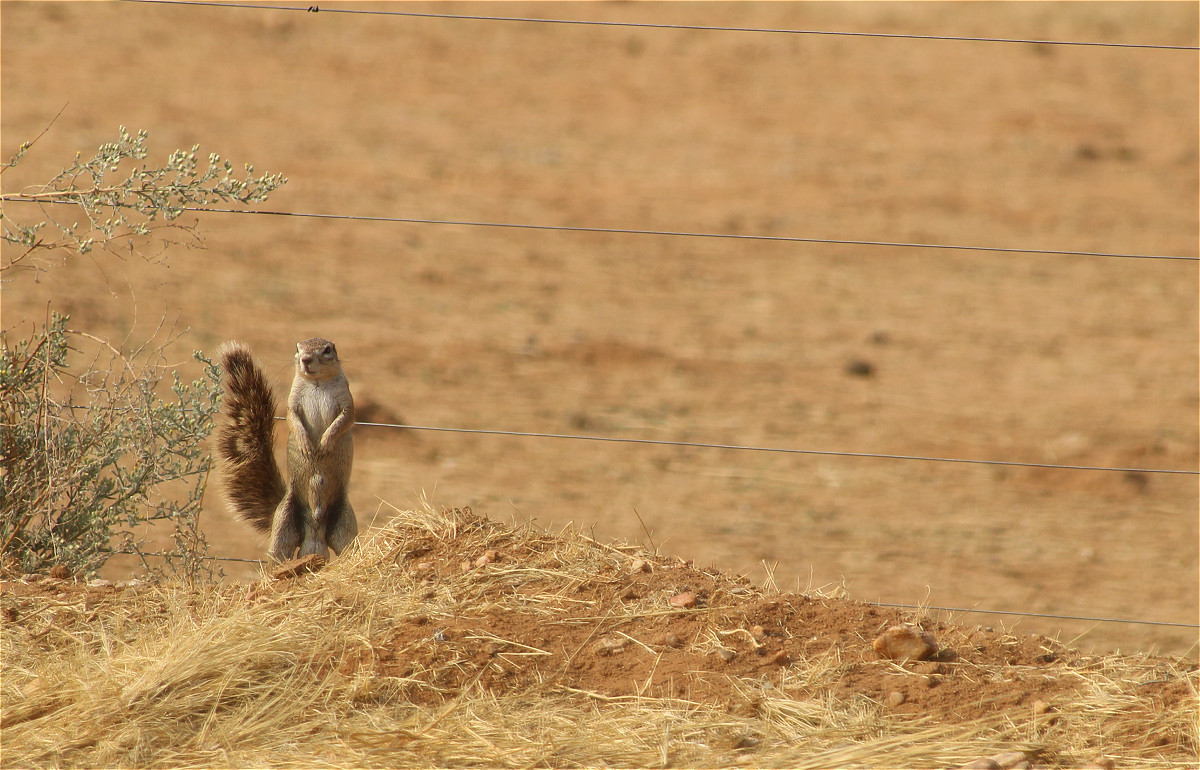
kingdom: Animalia
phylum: Chordata
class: Mammalia
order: Rodentia
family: Sciuridae
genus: Xerus
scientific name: Xerus inauris
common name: South african ground squirrel
